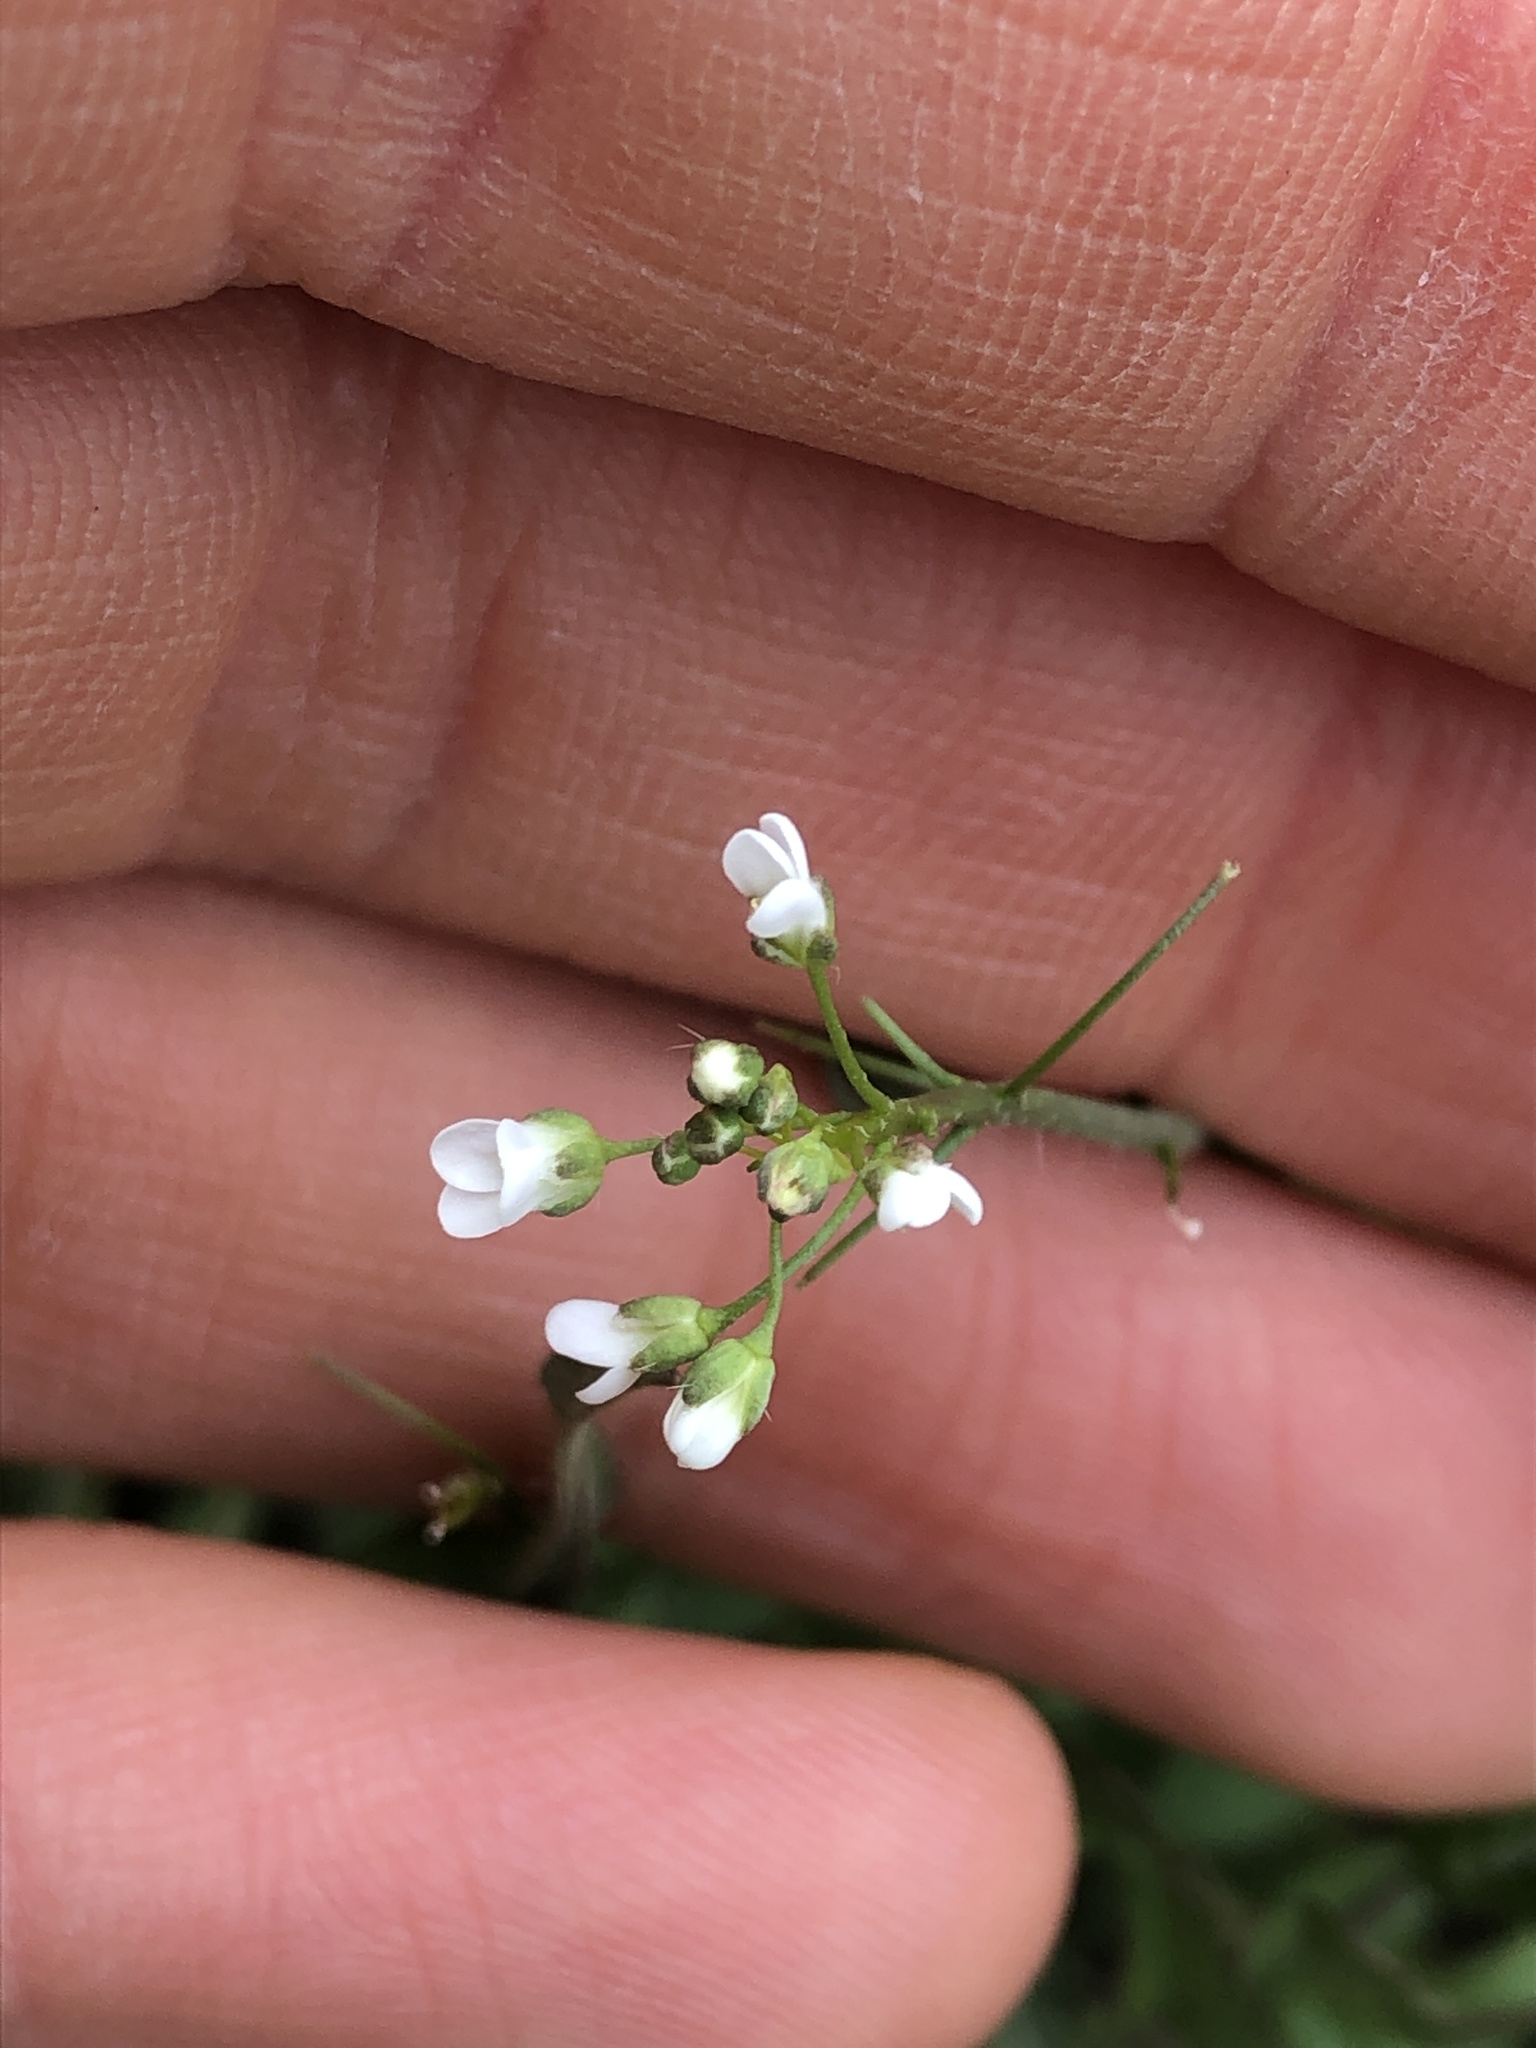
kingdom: Plantae
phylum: Tracheophyta
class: Magnoliopsida
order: Brassicales
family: Brassicaceae
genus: Capsella
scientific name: Capsella bursa-pastoris
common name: Shepherd's purse
